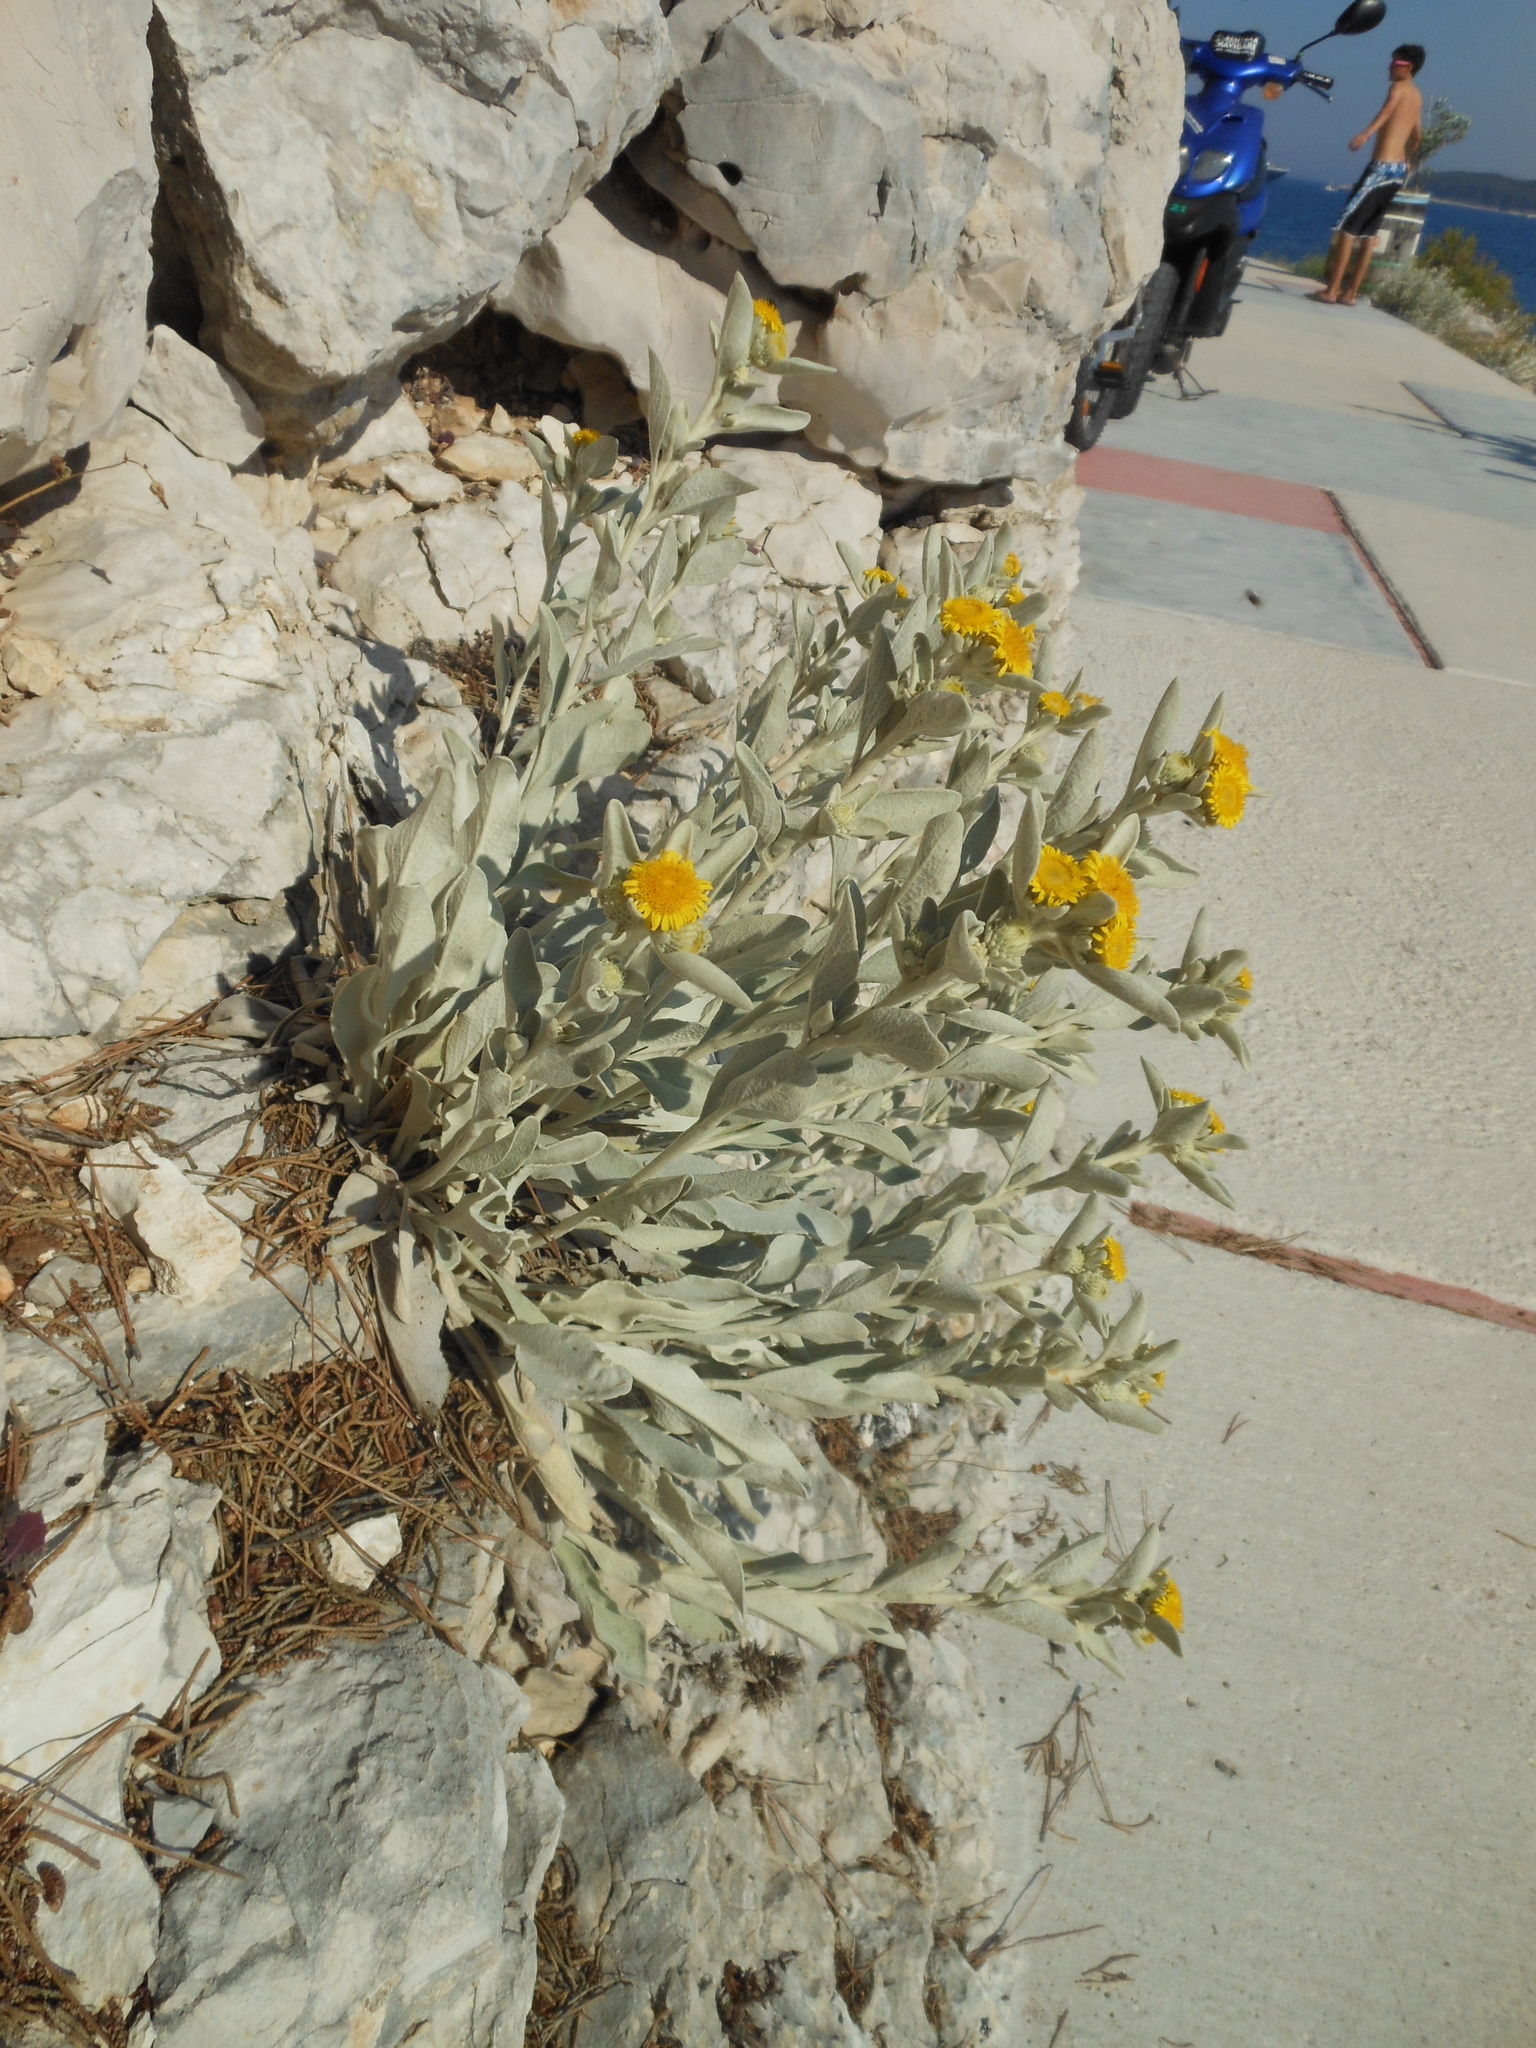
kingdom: Plantae
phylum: Tracheophyta
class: Magnoliopsida
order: Asterales
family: Asteraceae
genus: Jacobaea
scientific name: Jacobaea maritima
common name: Silver ragwort
